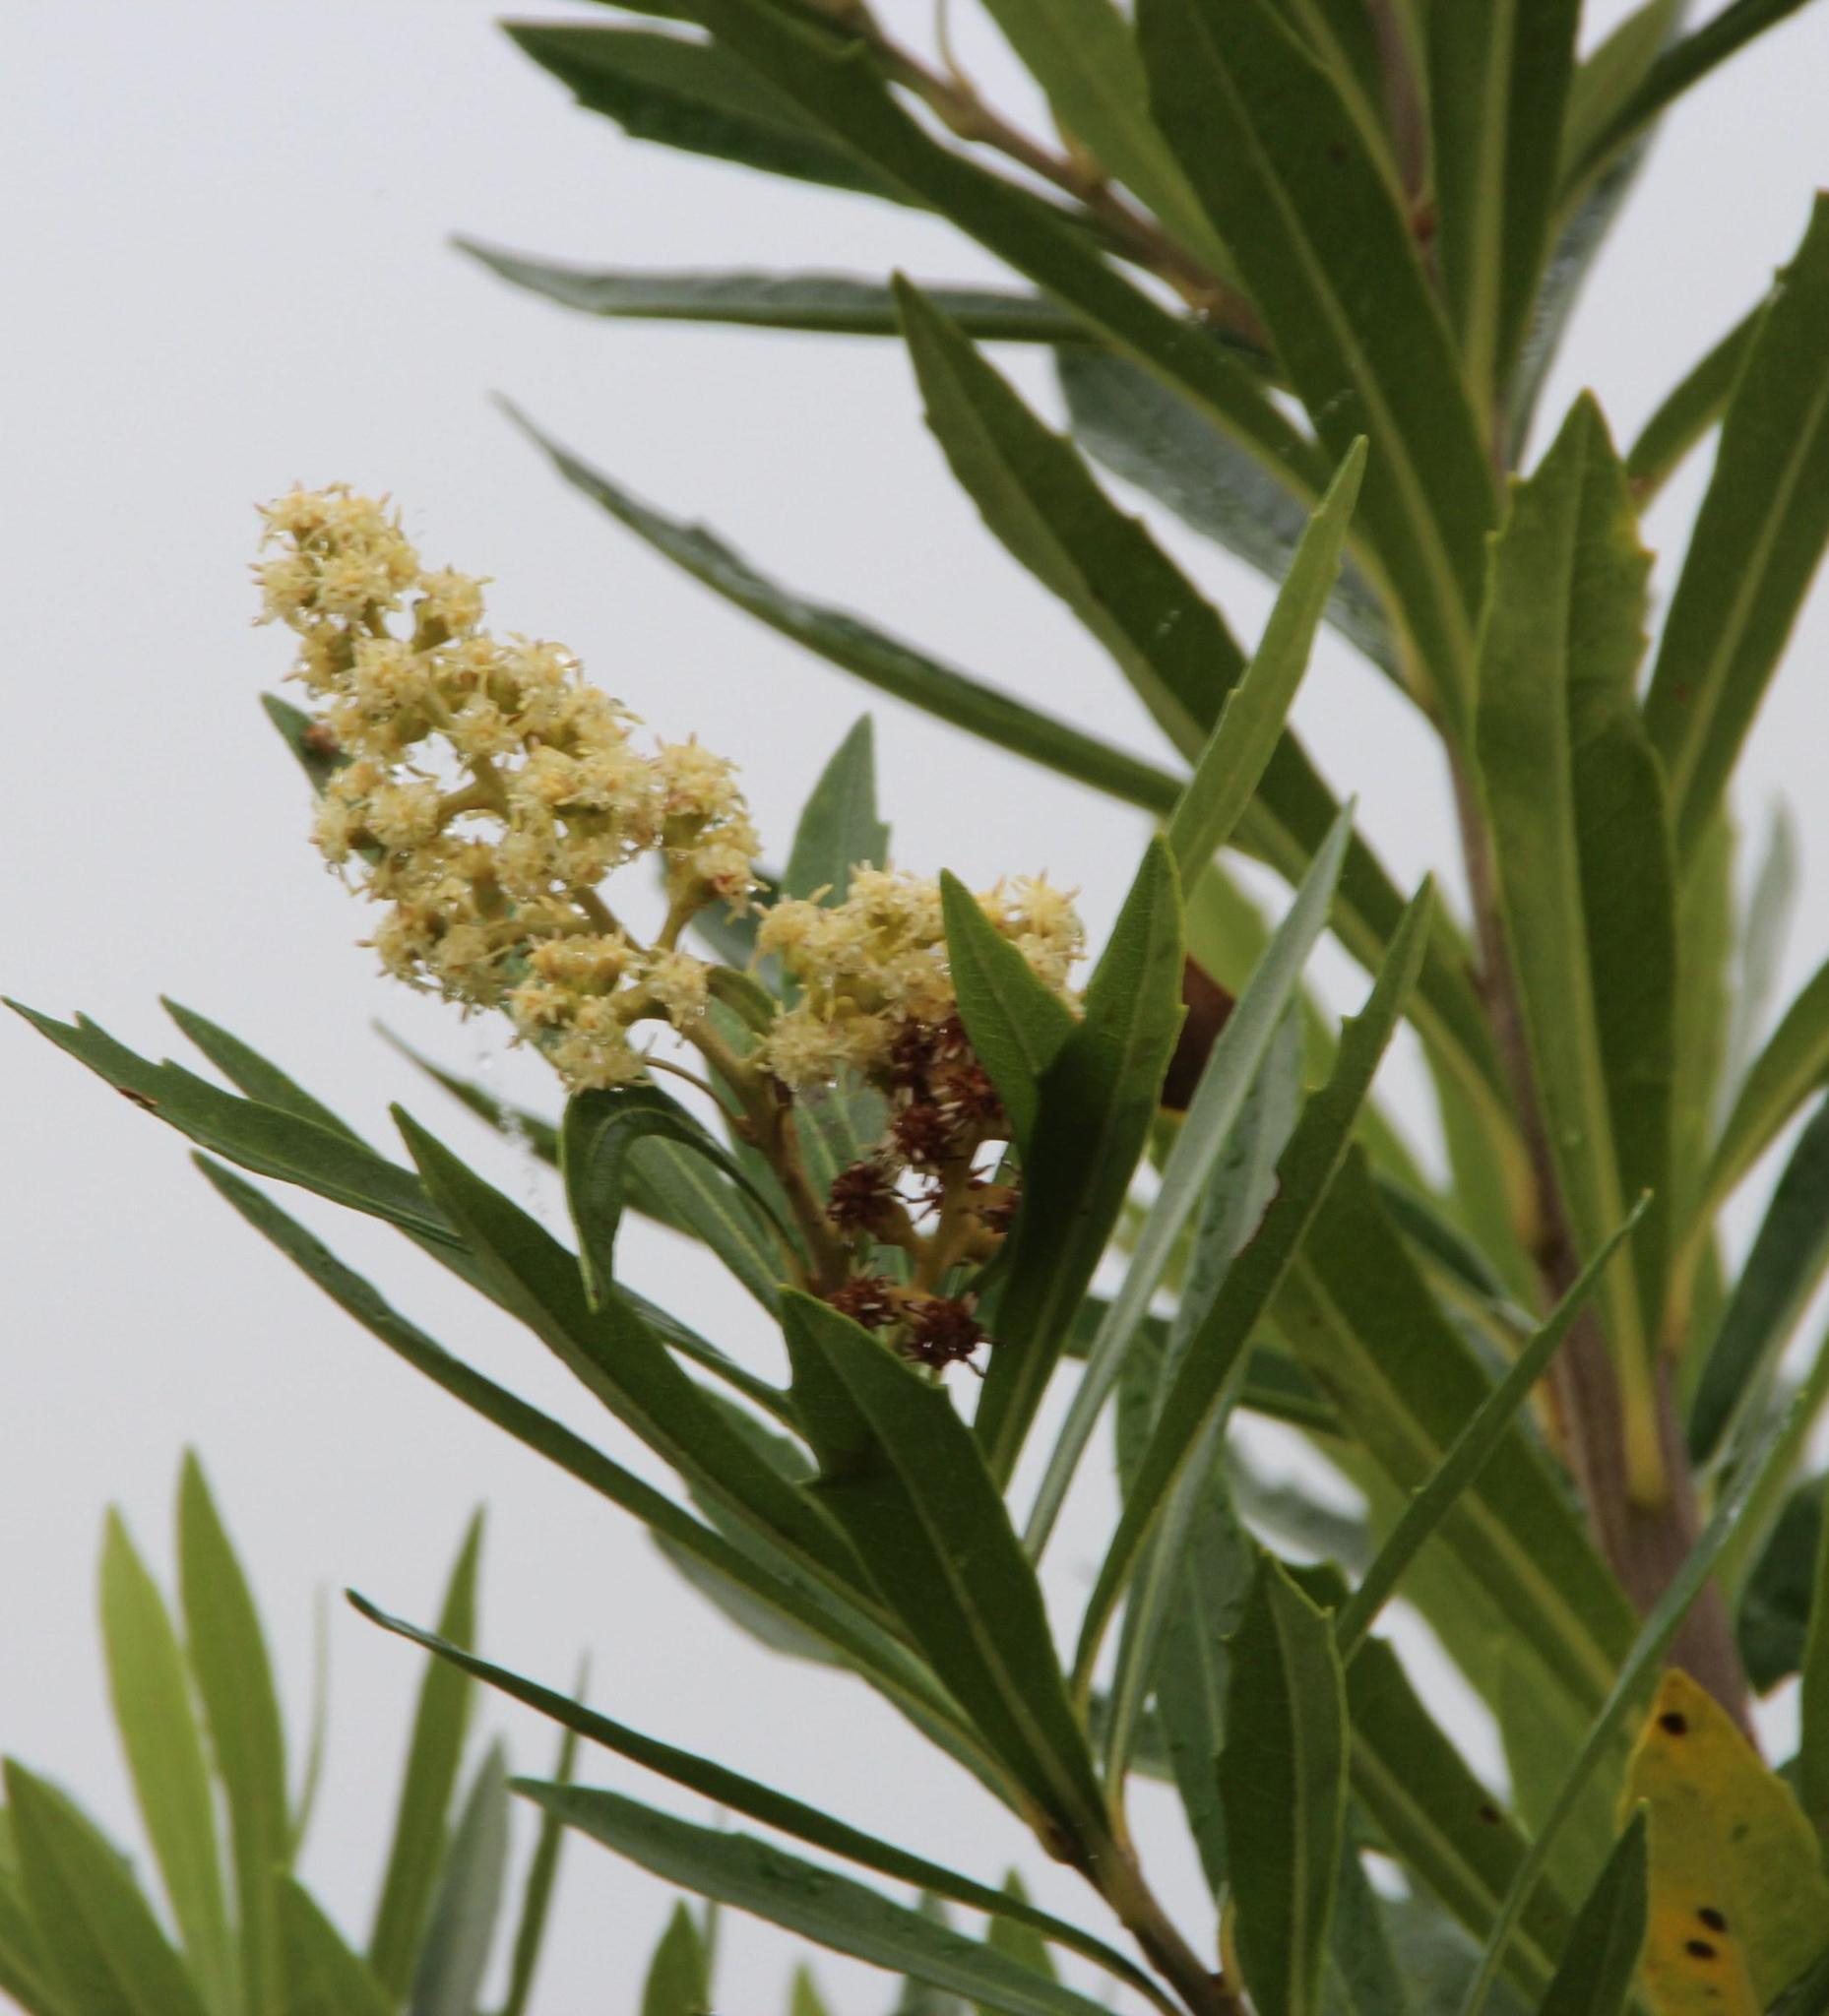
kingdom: Plantae
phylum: Tracheophyta
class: Magnoliopsida
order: Asterales
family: Asteraceae
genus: Brachylaena
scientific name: Brachylaena neriifolia
